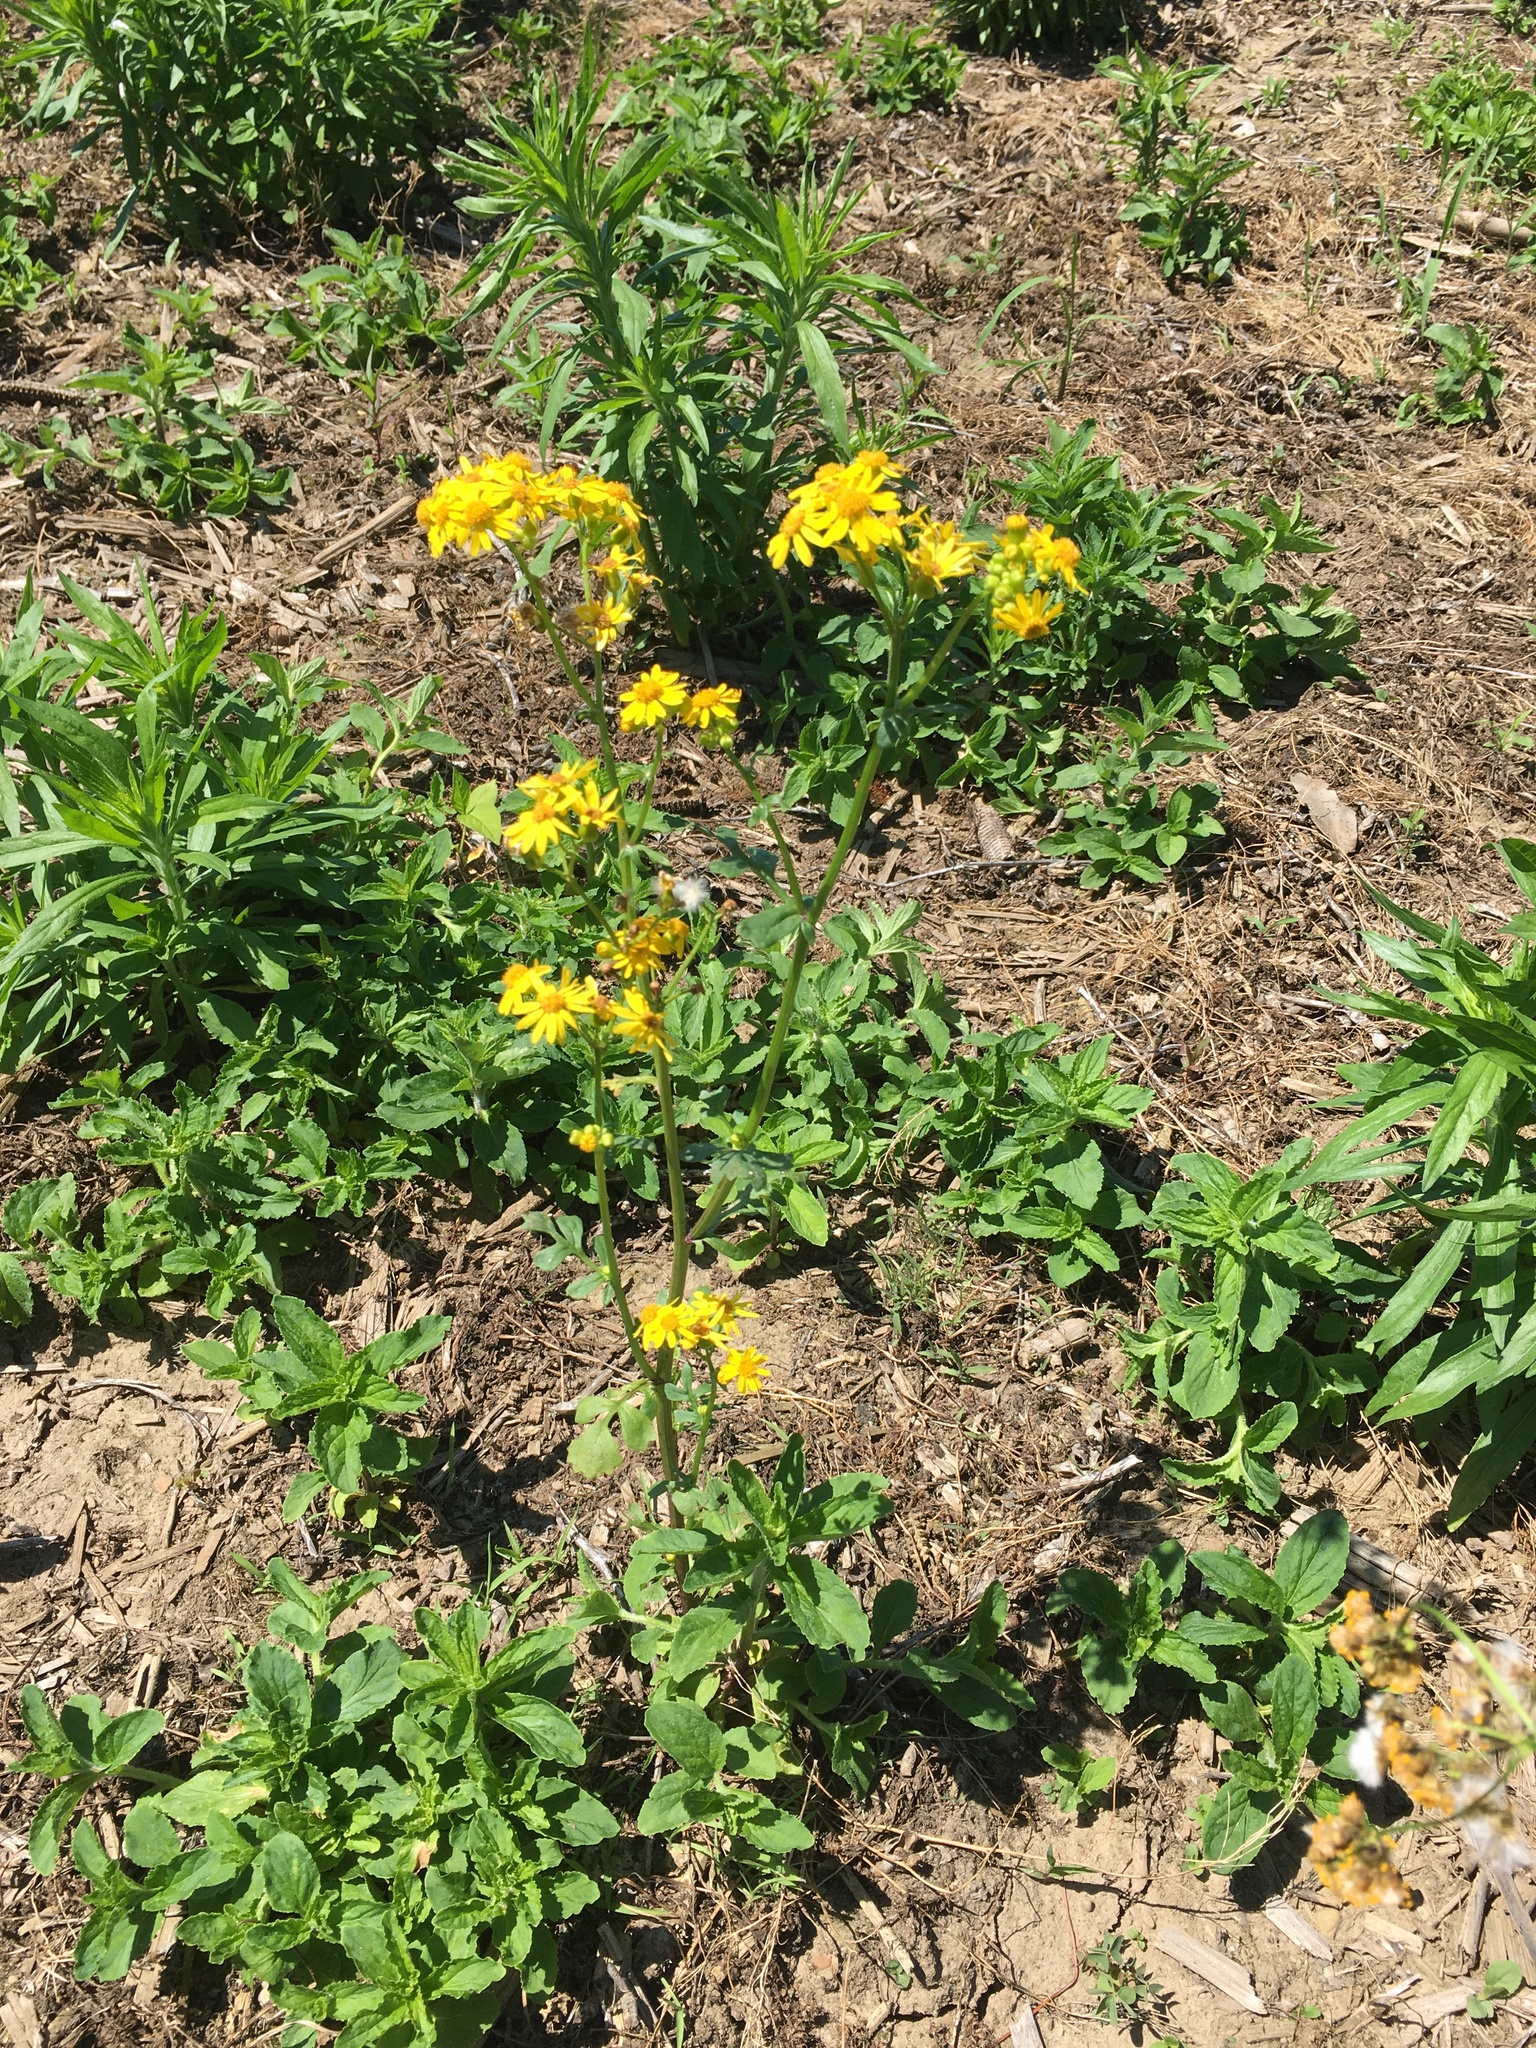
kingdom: Plantae
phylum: Tracheophyta
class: Magnoliopsida
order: Asterales
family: Asteraceae
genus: Packera
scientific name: Packera glabella
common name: Butterweed
